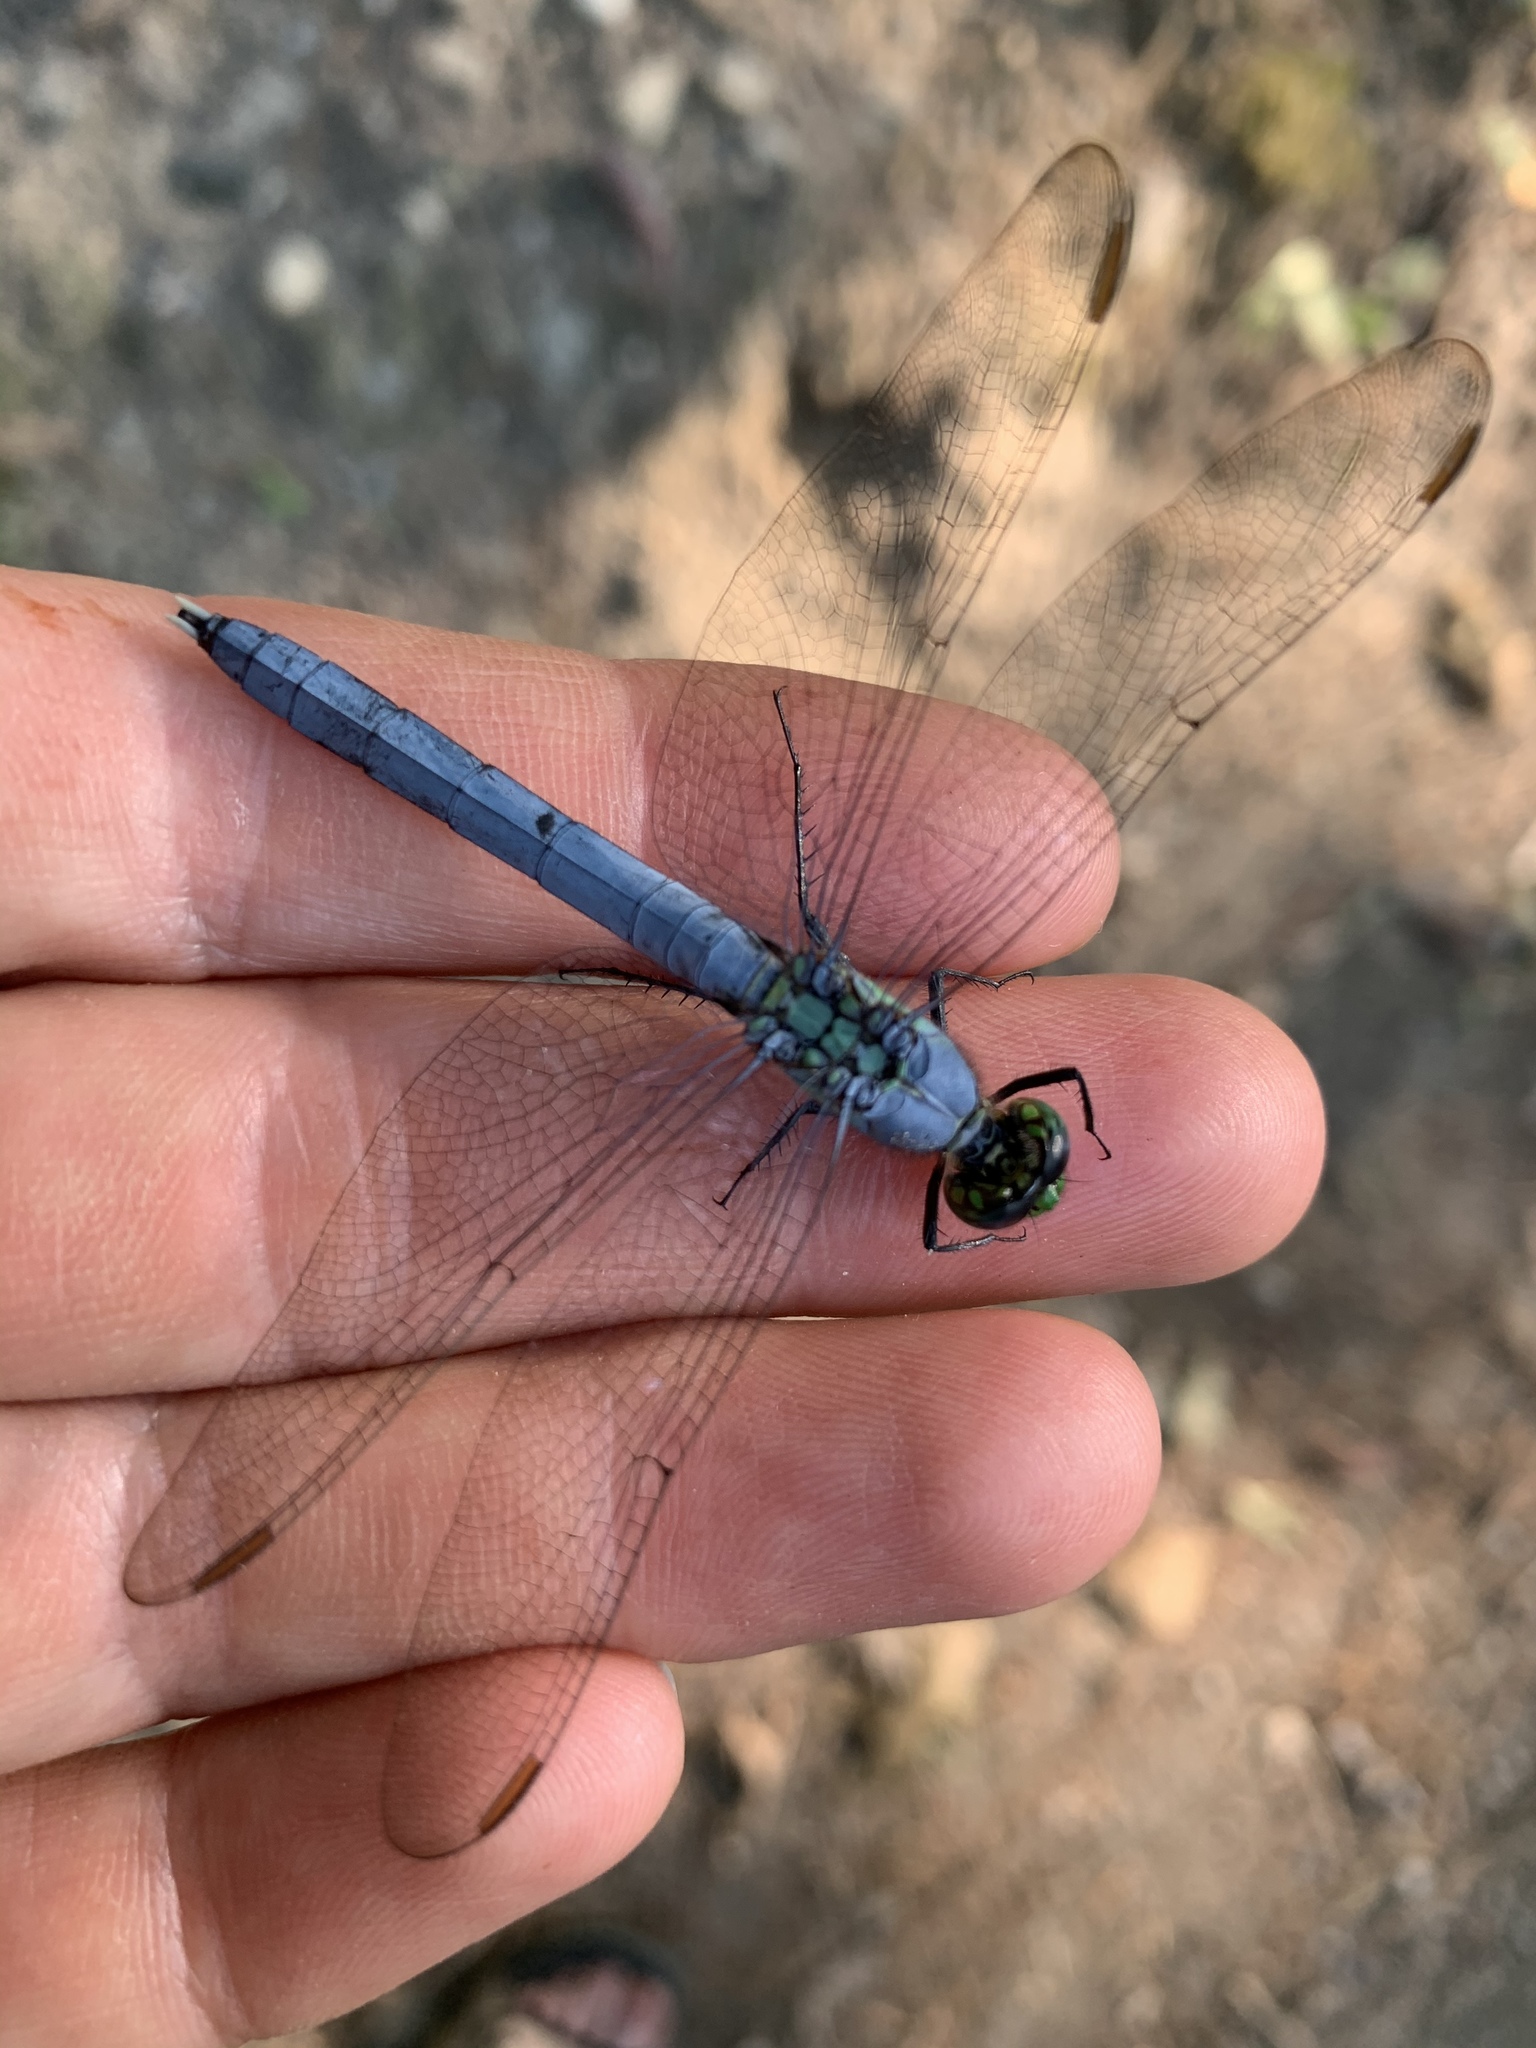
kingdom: Animalia
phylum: Arthropoda
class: Insecta
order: Odonata
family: Libellulidae
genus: Erythemis
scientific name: Erythemis simplicicollis
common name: Eastern pondhawk
